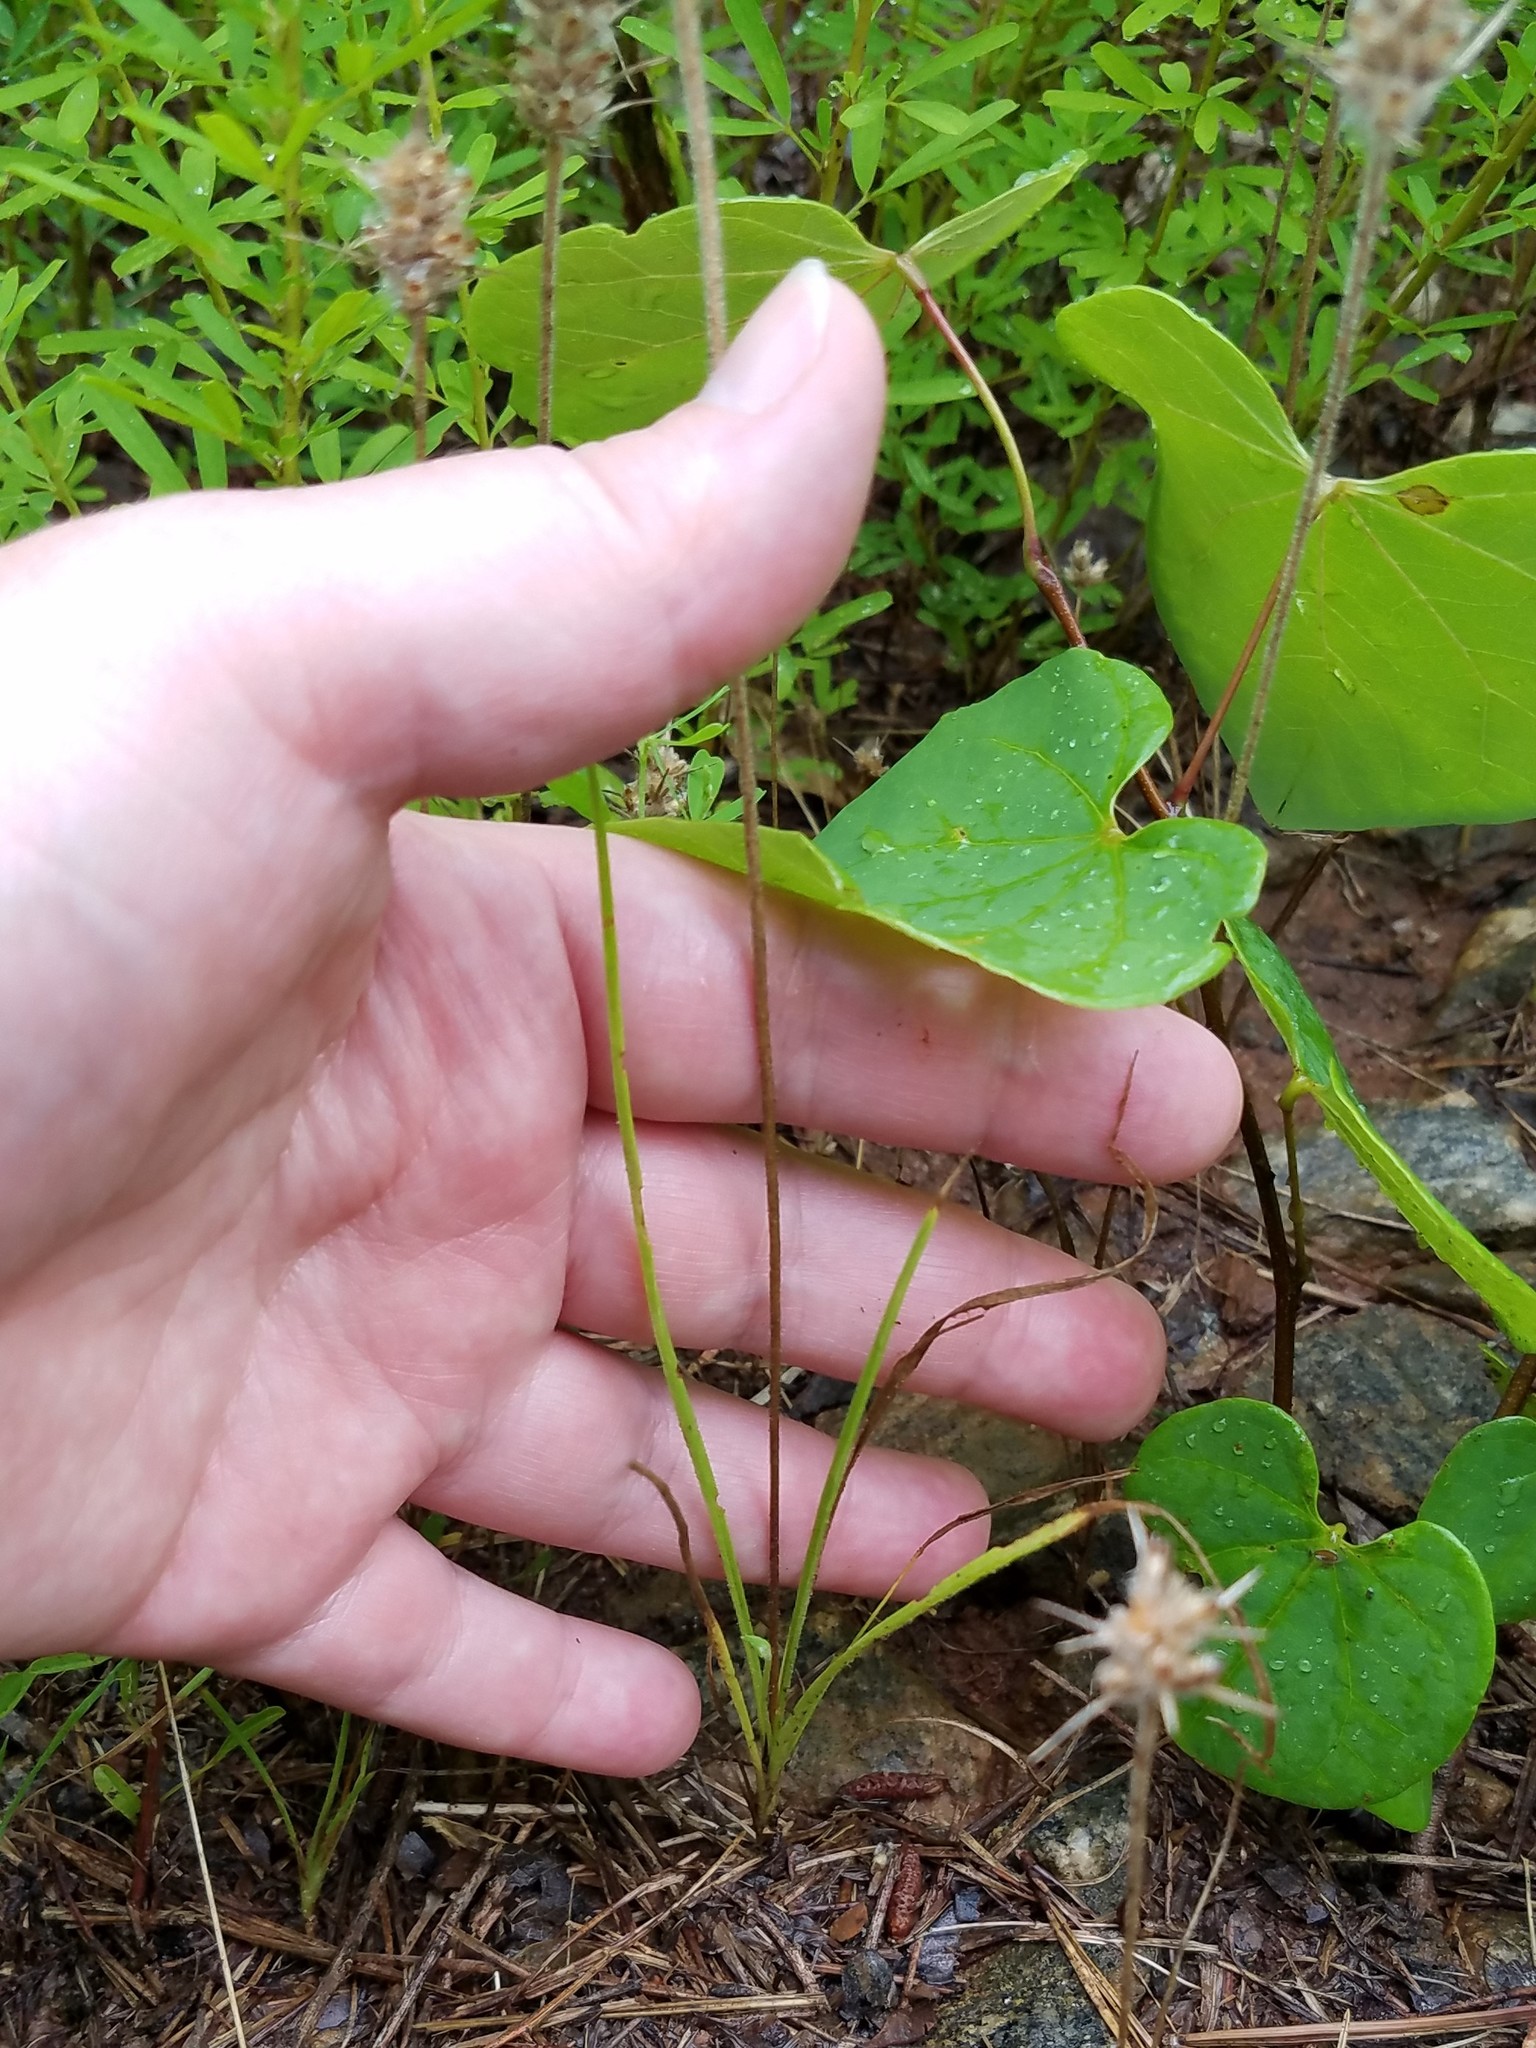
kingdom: Plantae
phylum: Tracheophyta
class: Magnoliopsida
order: Lamiales
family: Plantaginaceae
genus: Plantago
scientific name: Plantago aristata
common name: Bracted plantain
